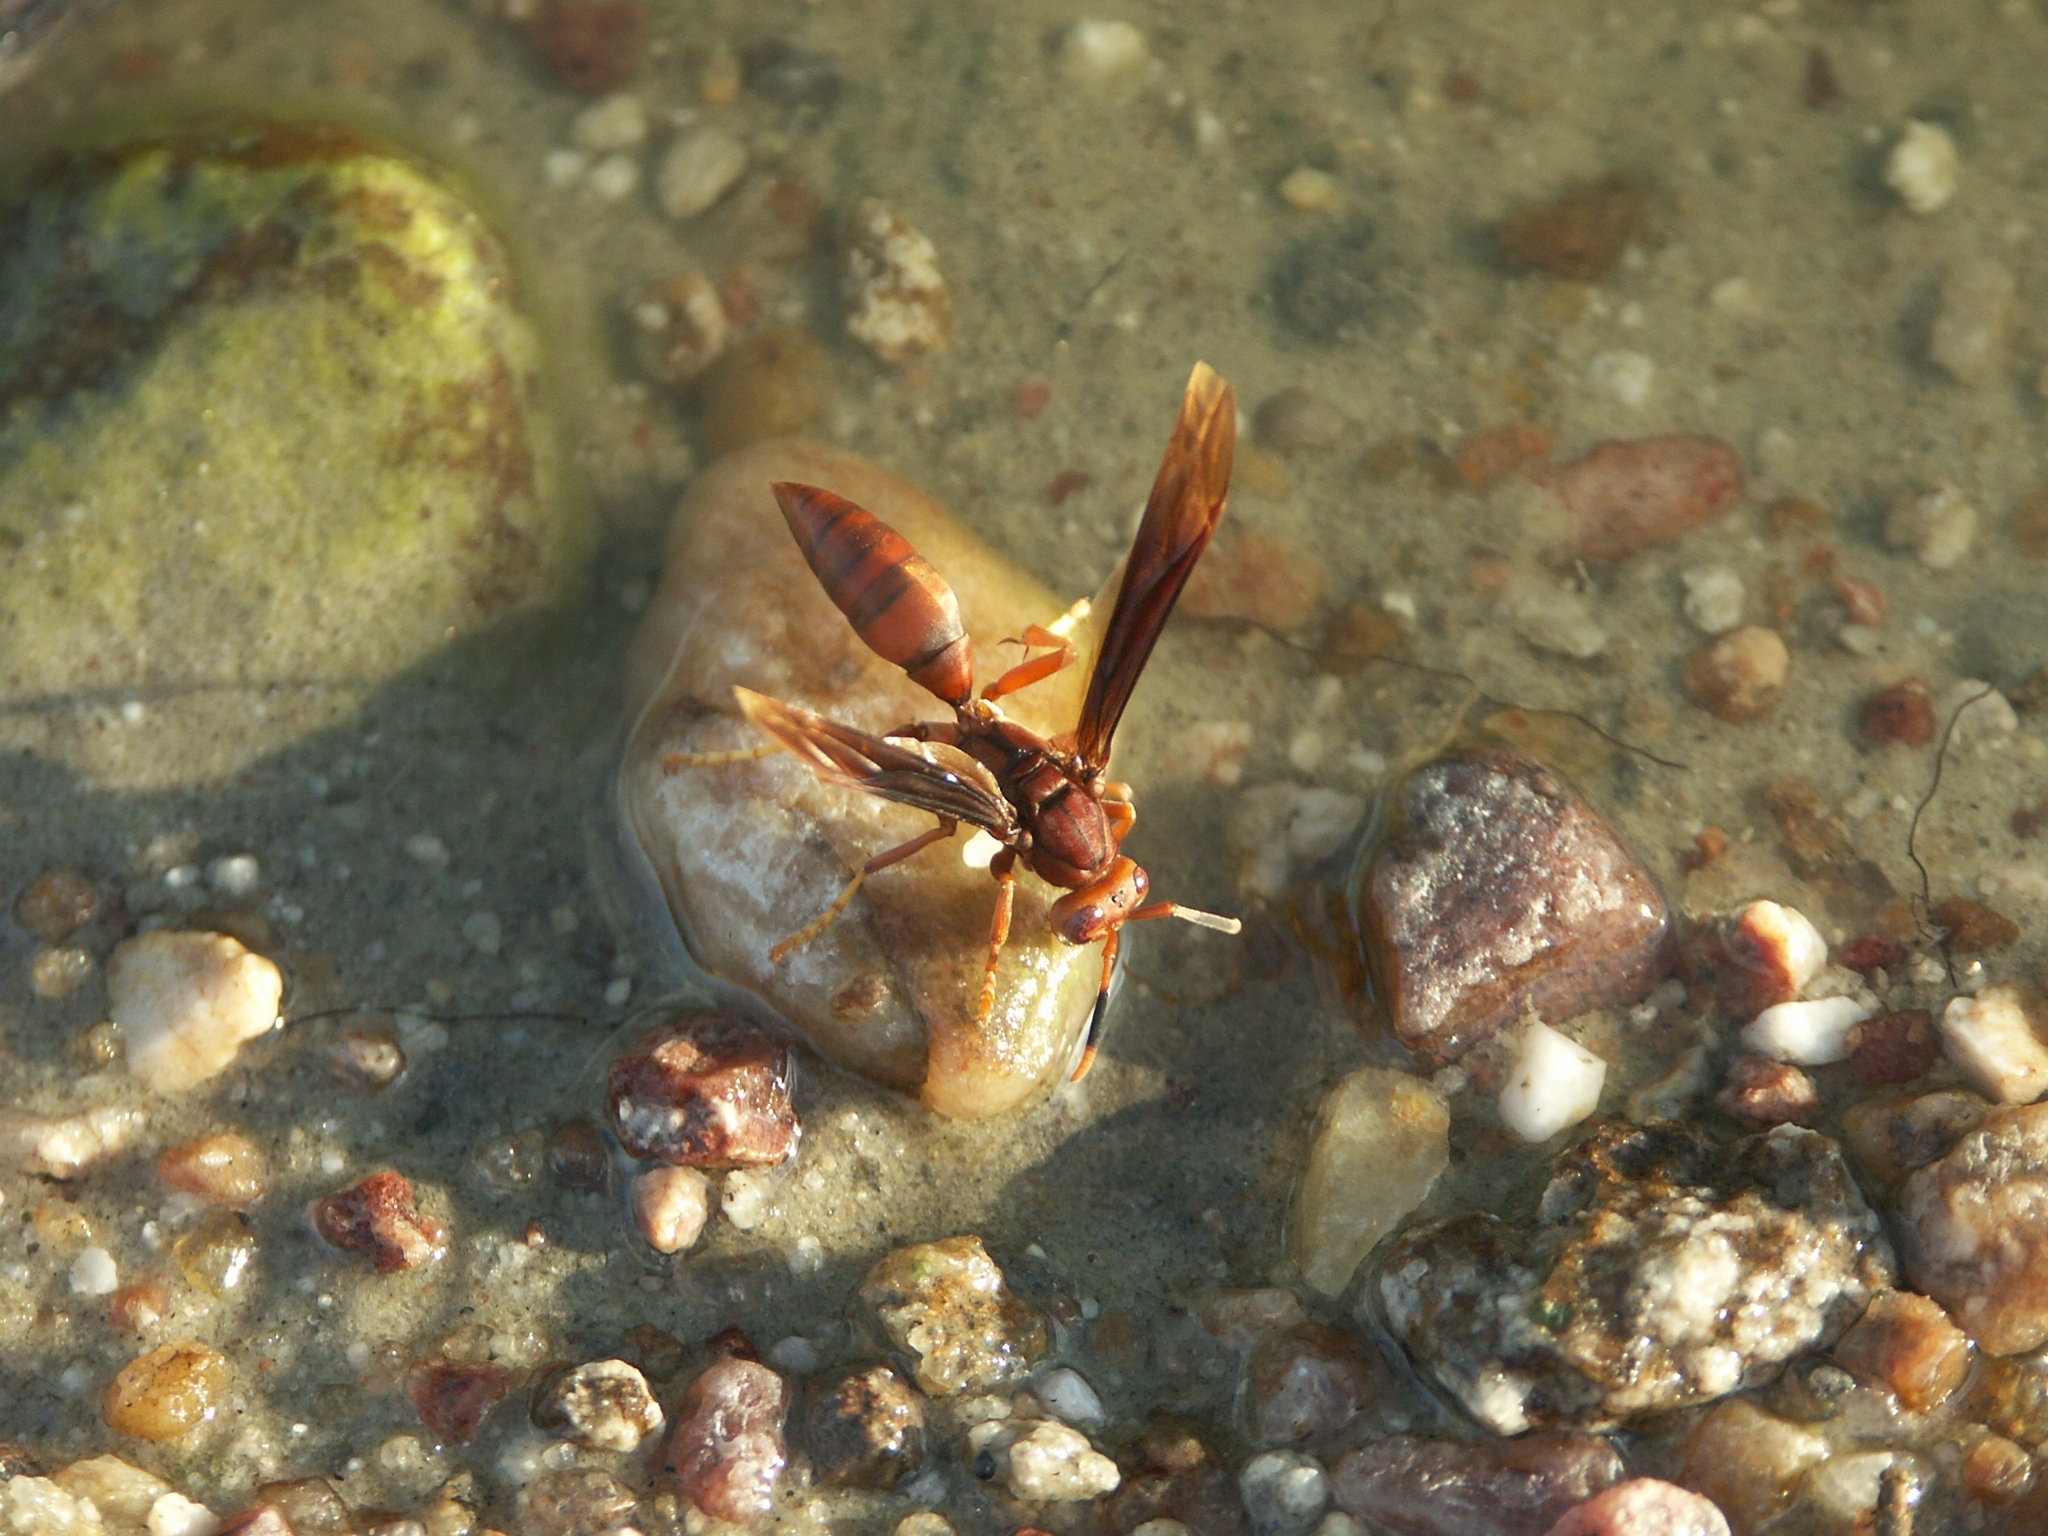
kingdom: Animalia
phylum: Arthropoda
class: Insecta
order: Hymenoptera
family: Eumenidae
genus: Polistes
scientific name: Polistes canadensis
